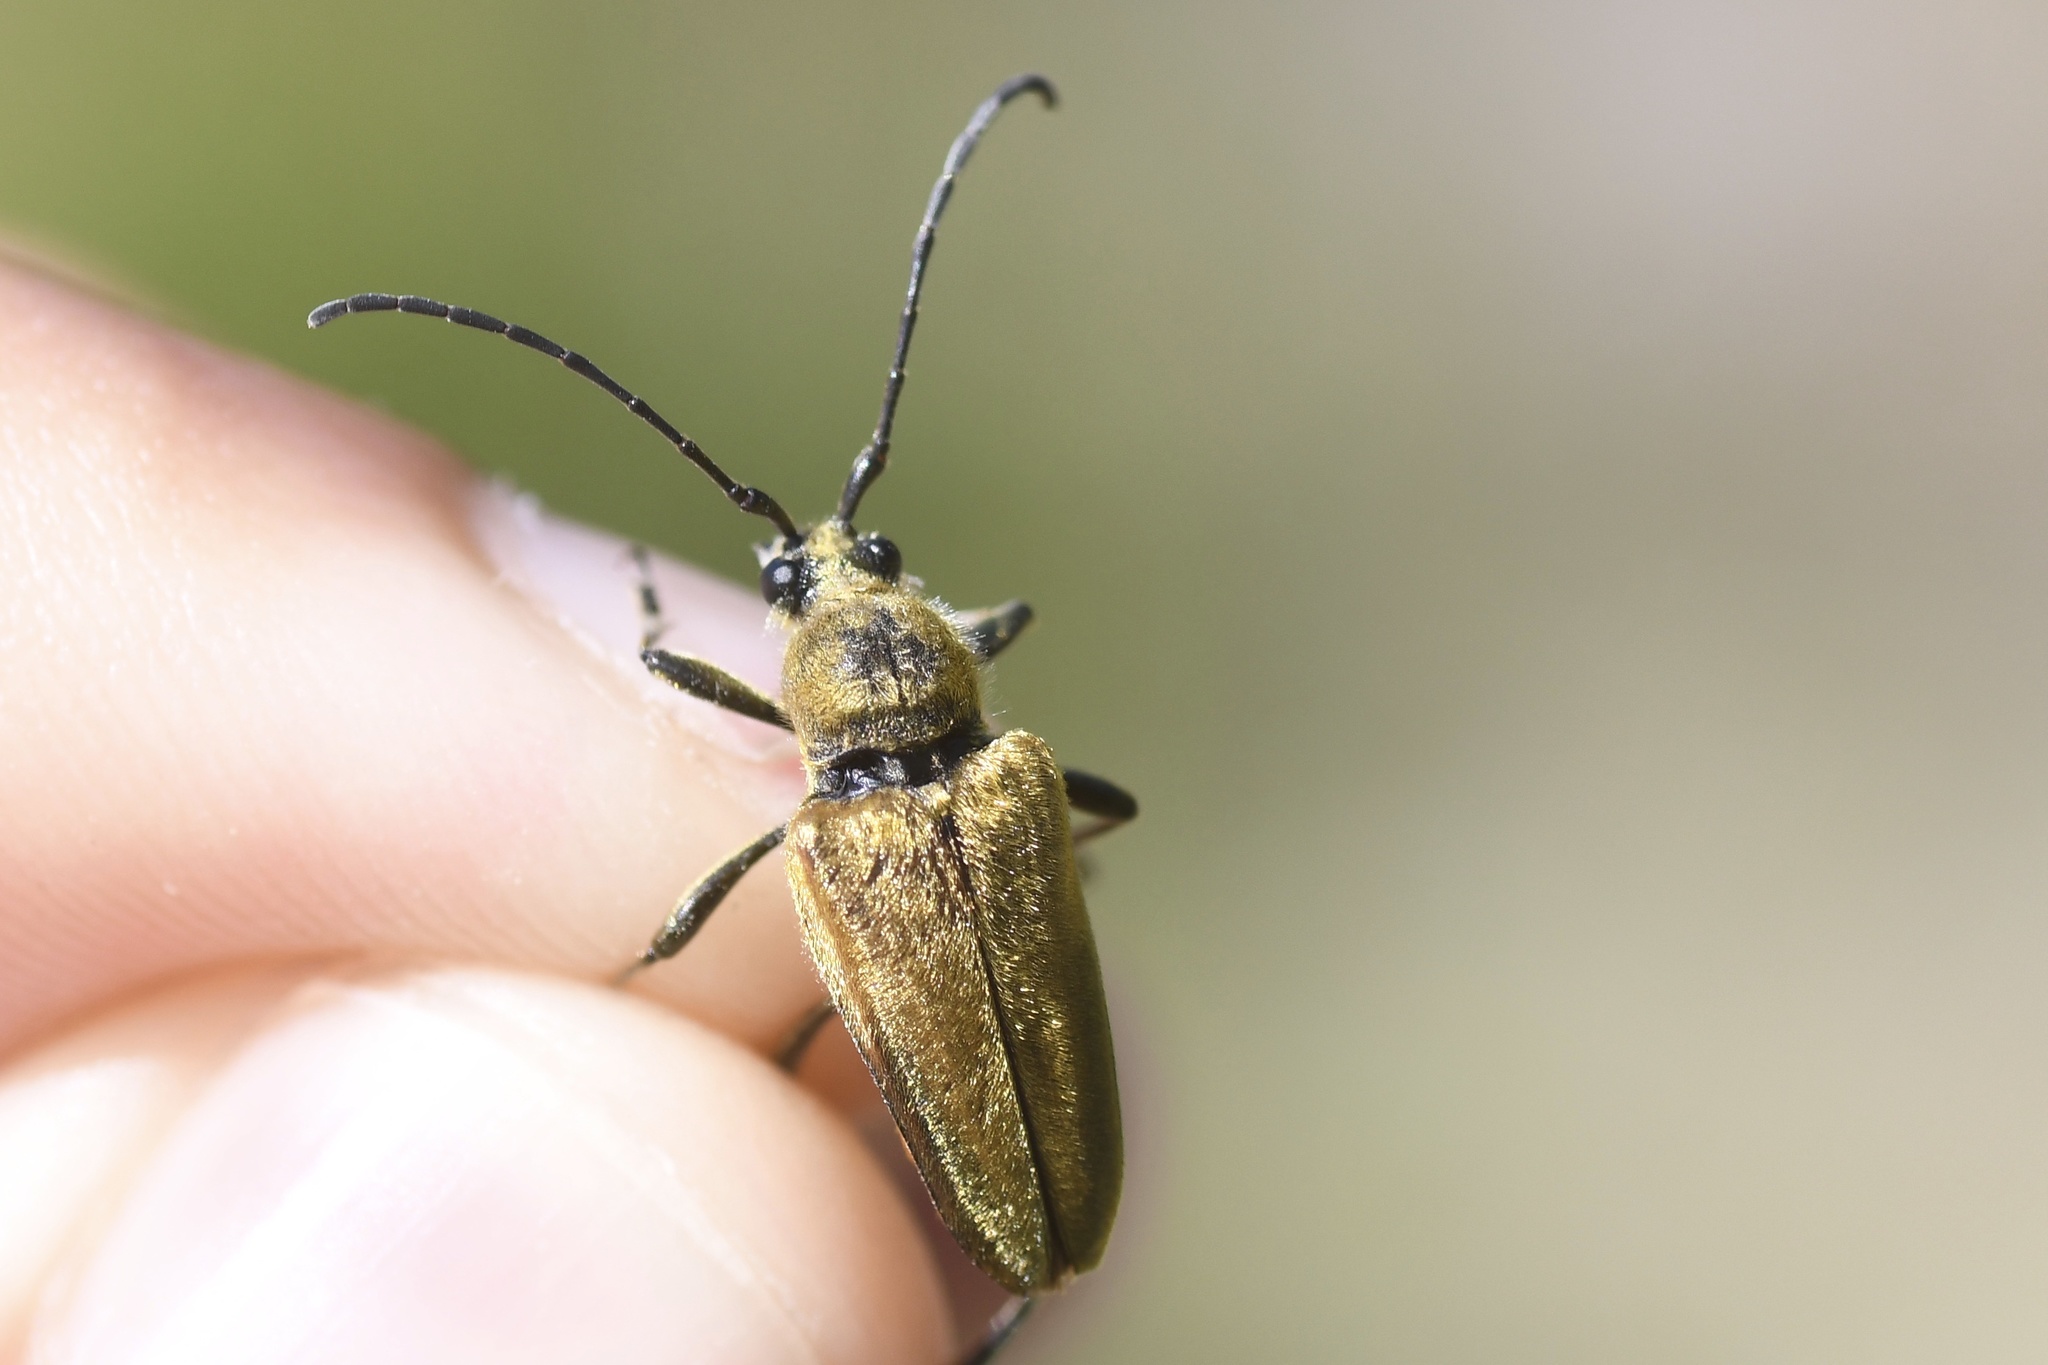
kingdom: Animalia
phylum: Arthropoda
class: Insecta
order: Coleoptera
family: Cerambycidae
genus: Cosmosalia
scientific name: Cosmosalia chrysocoma
